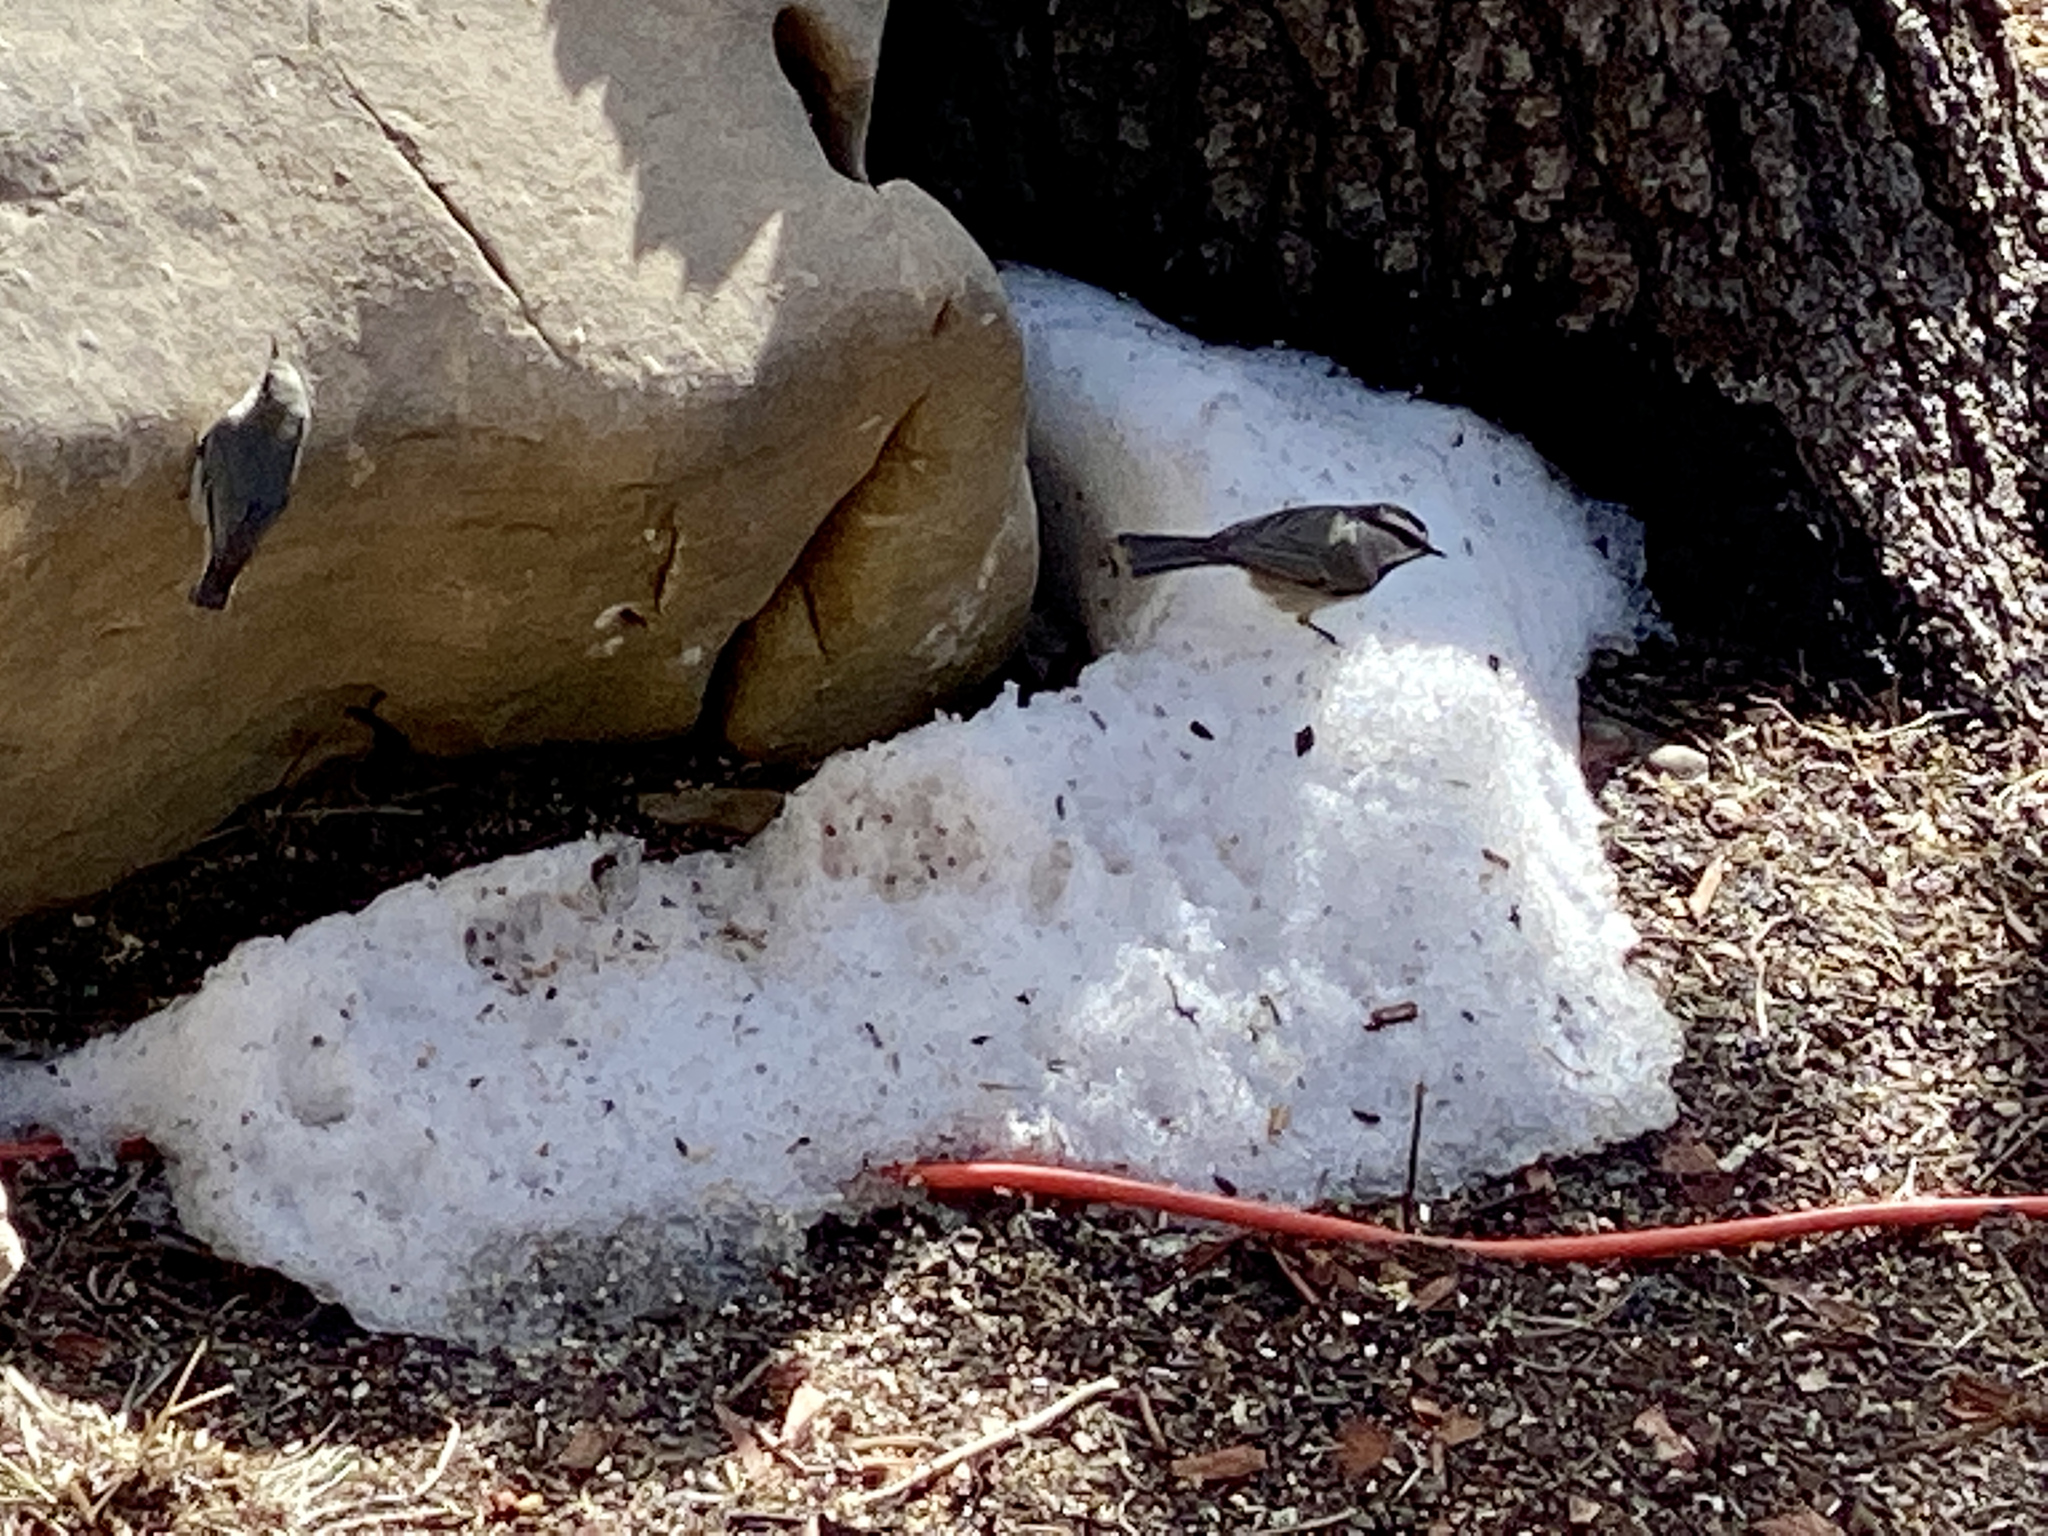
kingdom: Animalia
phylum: Chordata
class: Aves
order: Passeriformes
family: Sittidae
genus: Sitta
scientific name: Sitta pygmaea
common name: Pygmy nuthatch
